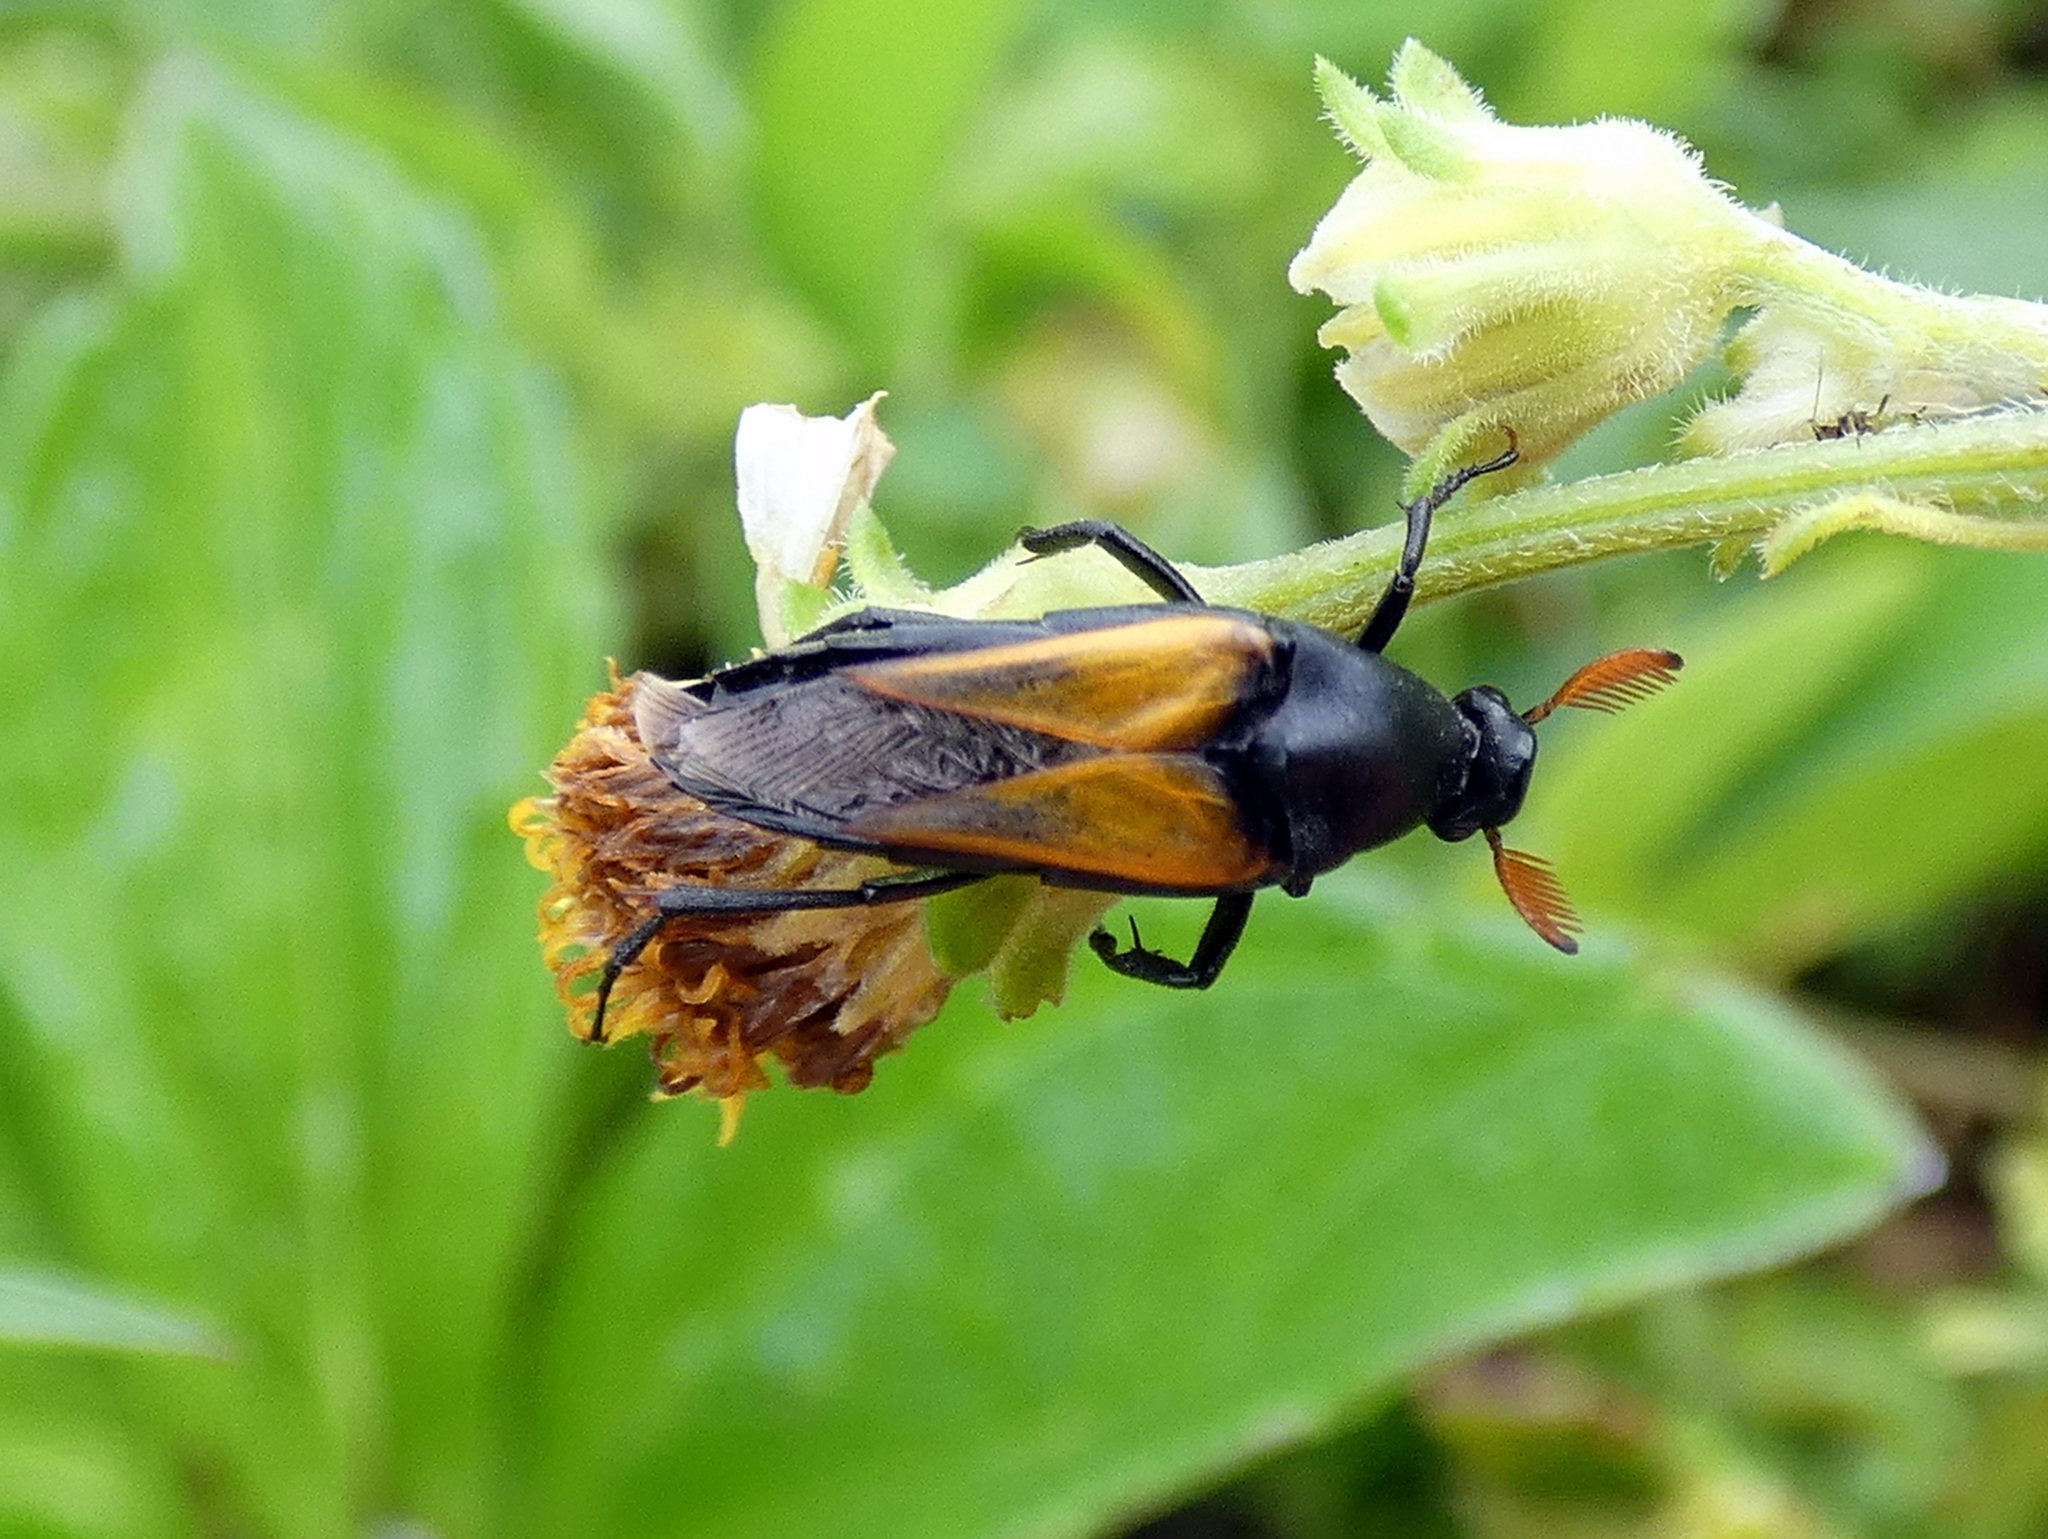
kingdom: Animalia
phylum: Arthropoda
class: Insecta
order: Coleoptera
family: Ripiphoridae
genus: Macrosiagon
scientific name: Macrosiagon flavipennis
